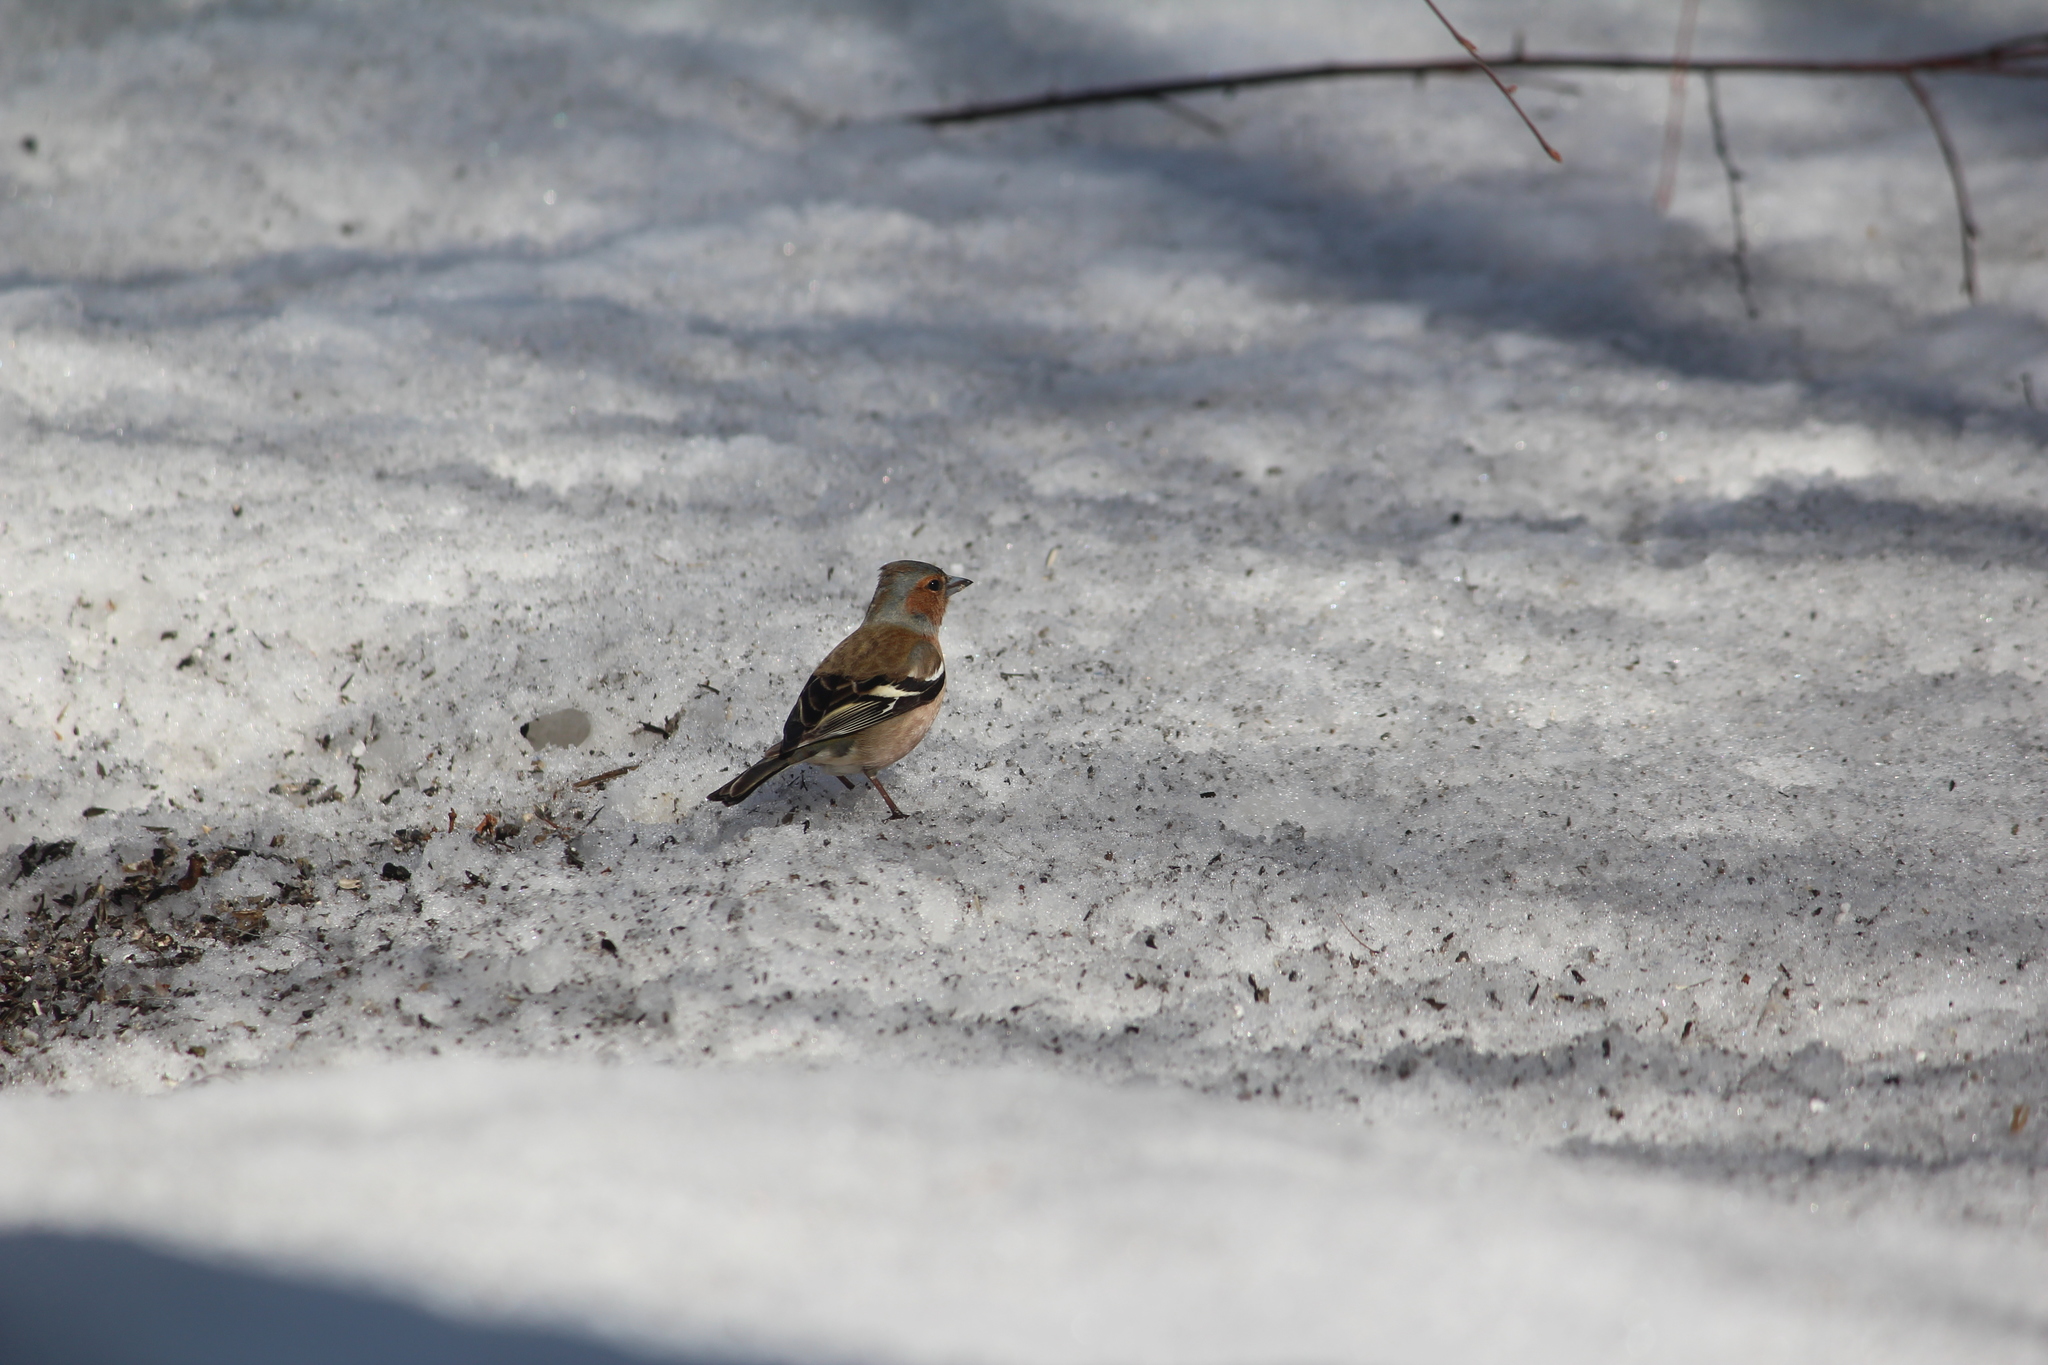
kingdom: Animalia
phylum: Chordata
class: Aves
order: Passeriformes
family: Fringillidae
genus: Fringilla
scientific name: Fringilla coelebs
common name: Common chaffinch
